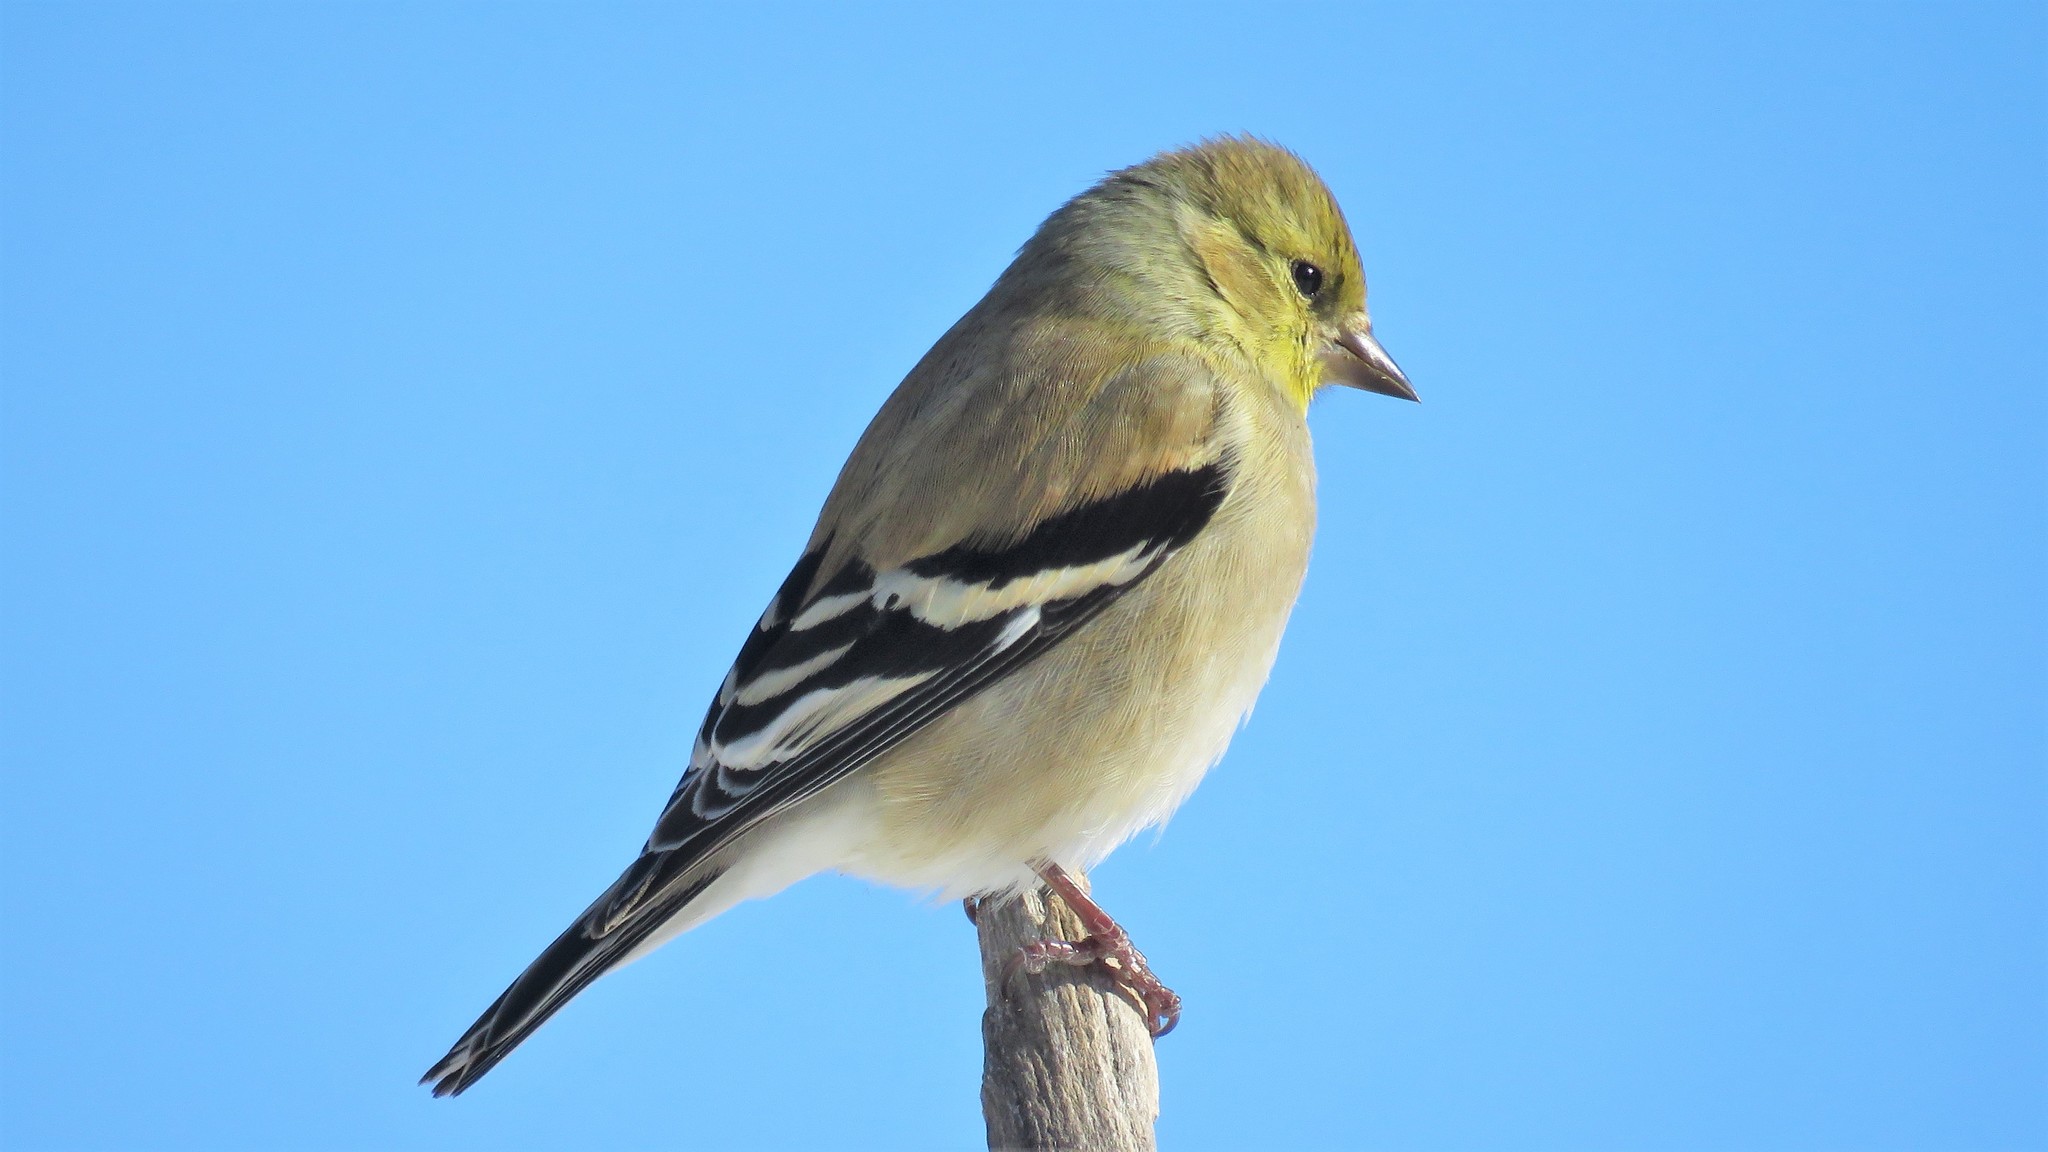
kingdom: Animalia
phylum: Chordata
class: Aves
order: Passeriformes
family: Fringillidae
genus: Spinus
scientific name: Spinus tristis
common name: American goldfinch
